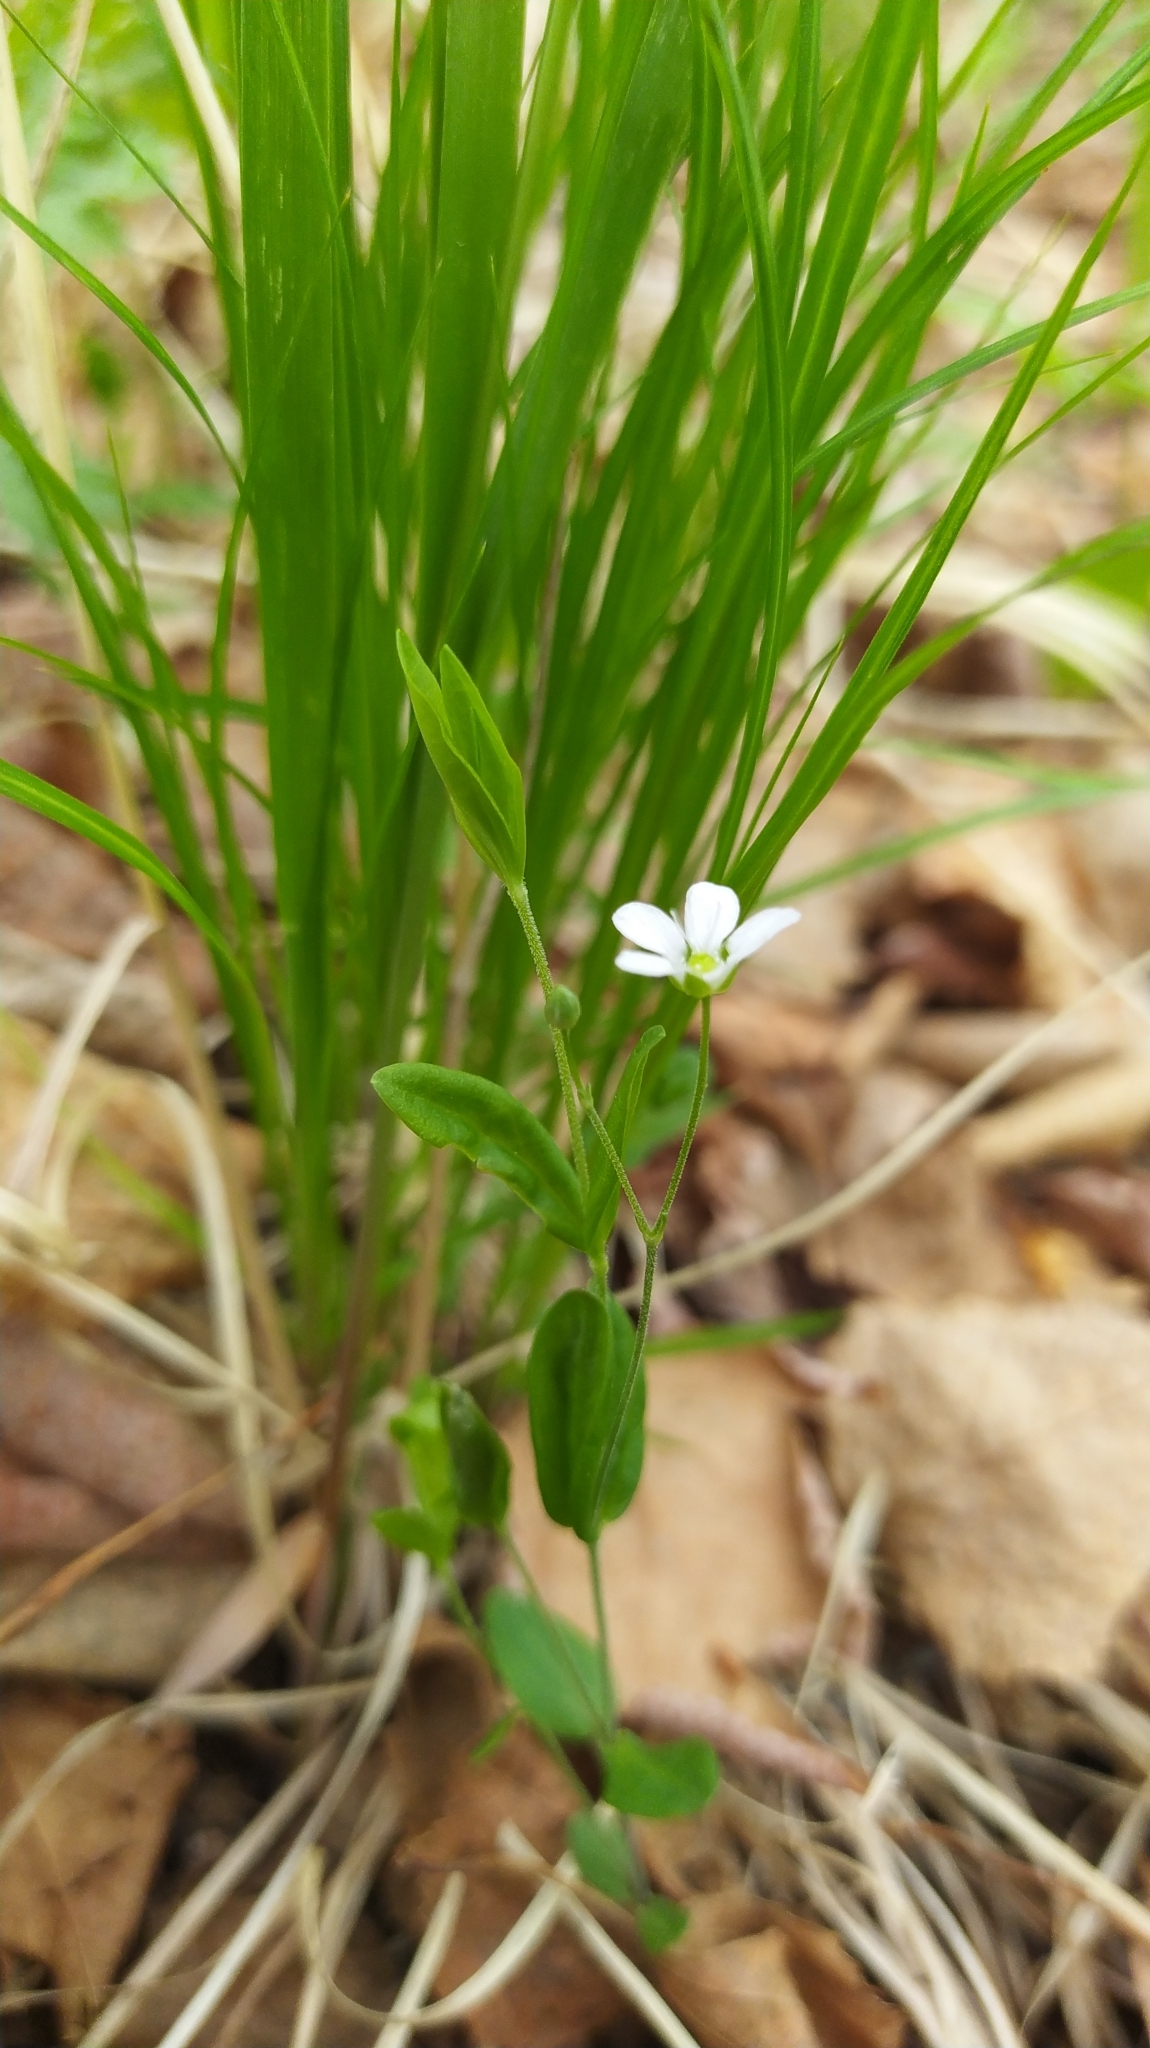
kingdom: Plantae
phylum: Tracheophyta
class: Magnoliopsida
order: Caryophyllales
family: Caryophyllaceae
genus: Moehringia
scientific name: Moehringia lateriflora
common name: Blunt-leaved sandwort
